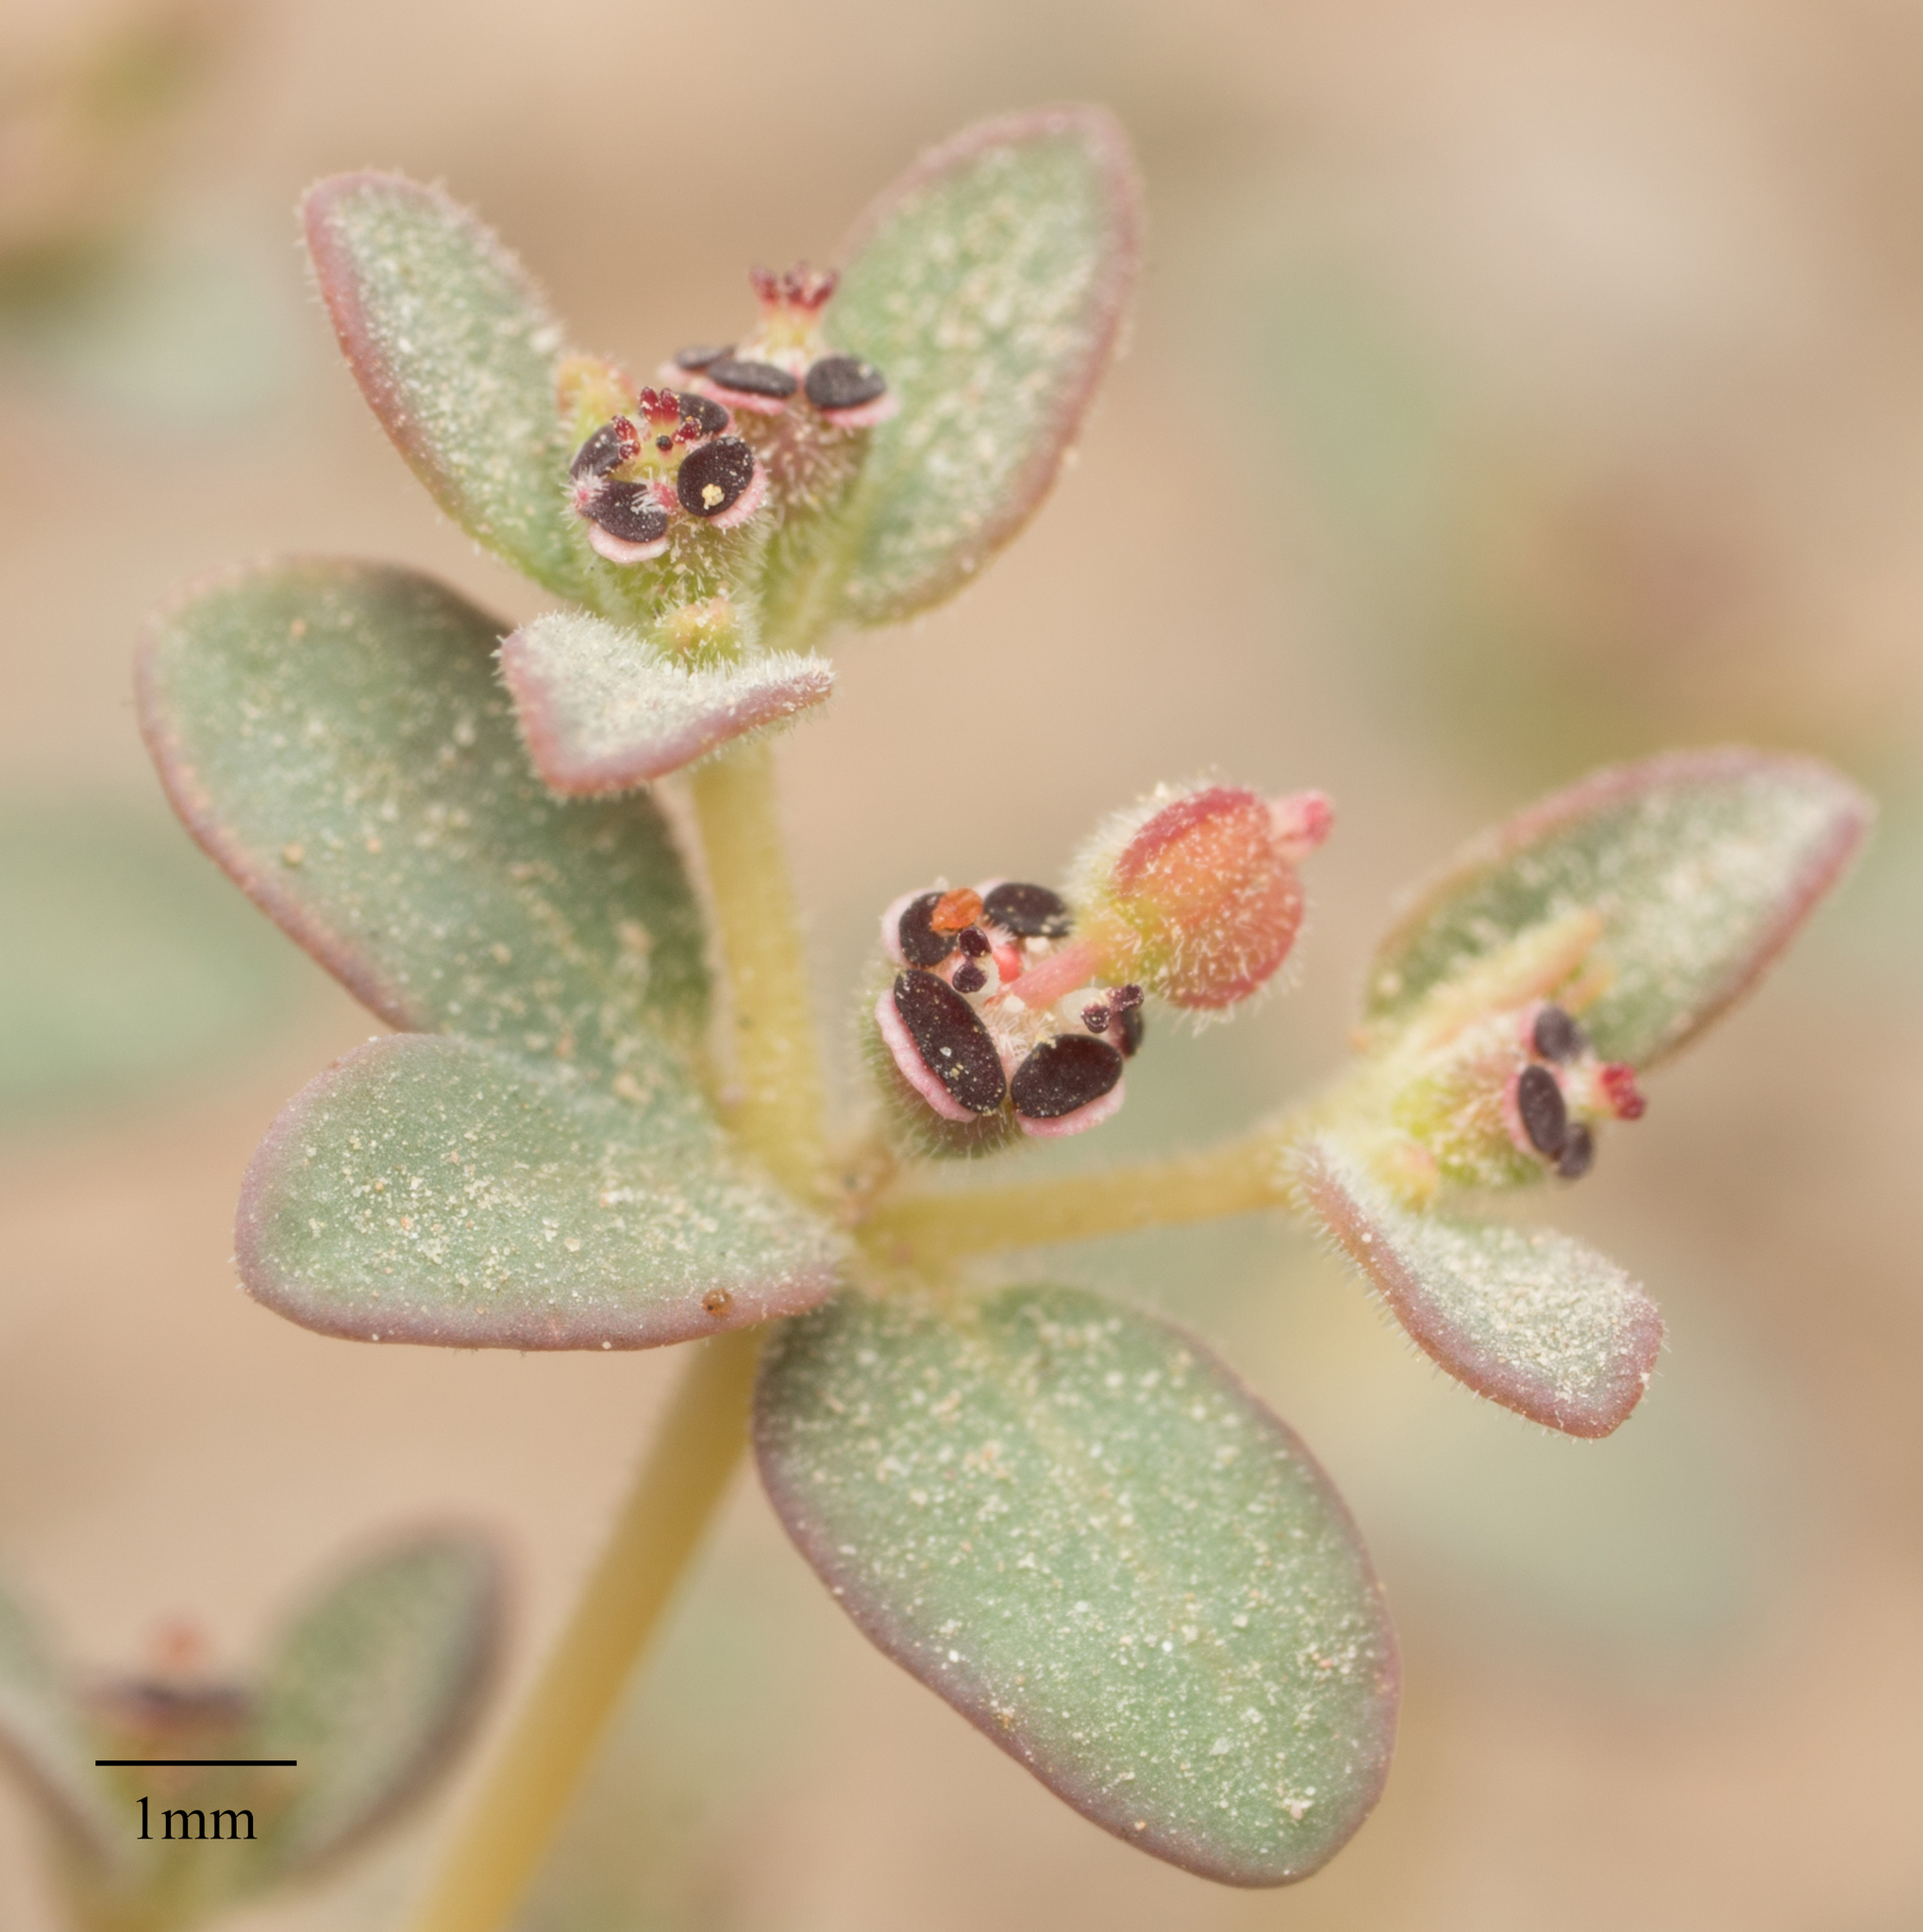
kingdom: Plantae
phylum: Tracheophyta
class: Magnoliopsida
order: Malpighiales
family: Euphorbiaceae
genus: Euphorbia
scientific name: Euphorbia polycarpa
